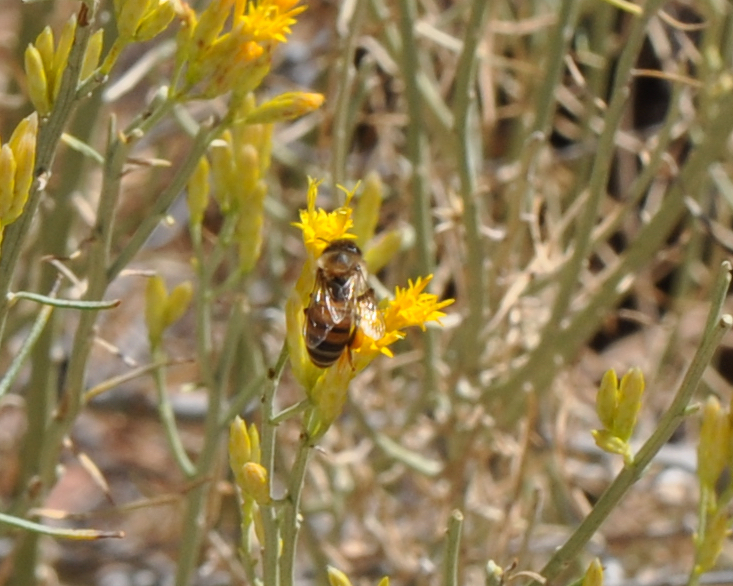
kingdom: Animalia
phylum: Arthropoda
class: Insecta
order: Hymenoptera
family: Apidae
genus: Apis
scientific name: Apis mellifera
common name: Honey bee
